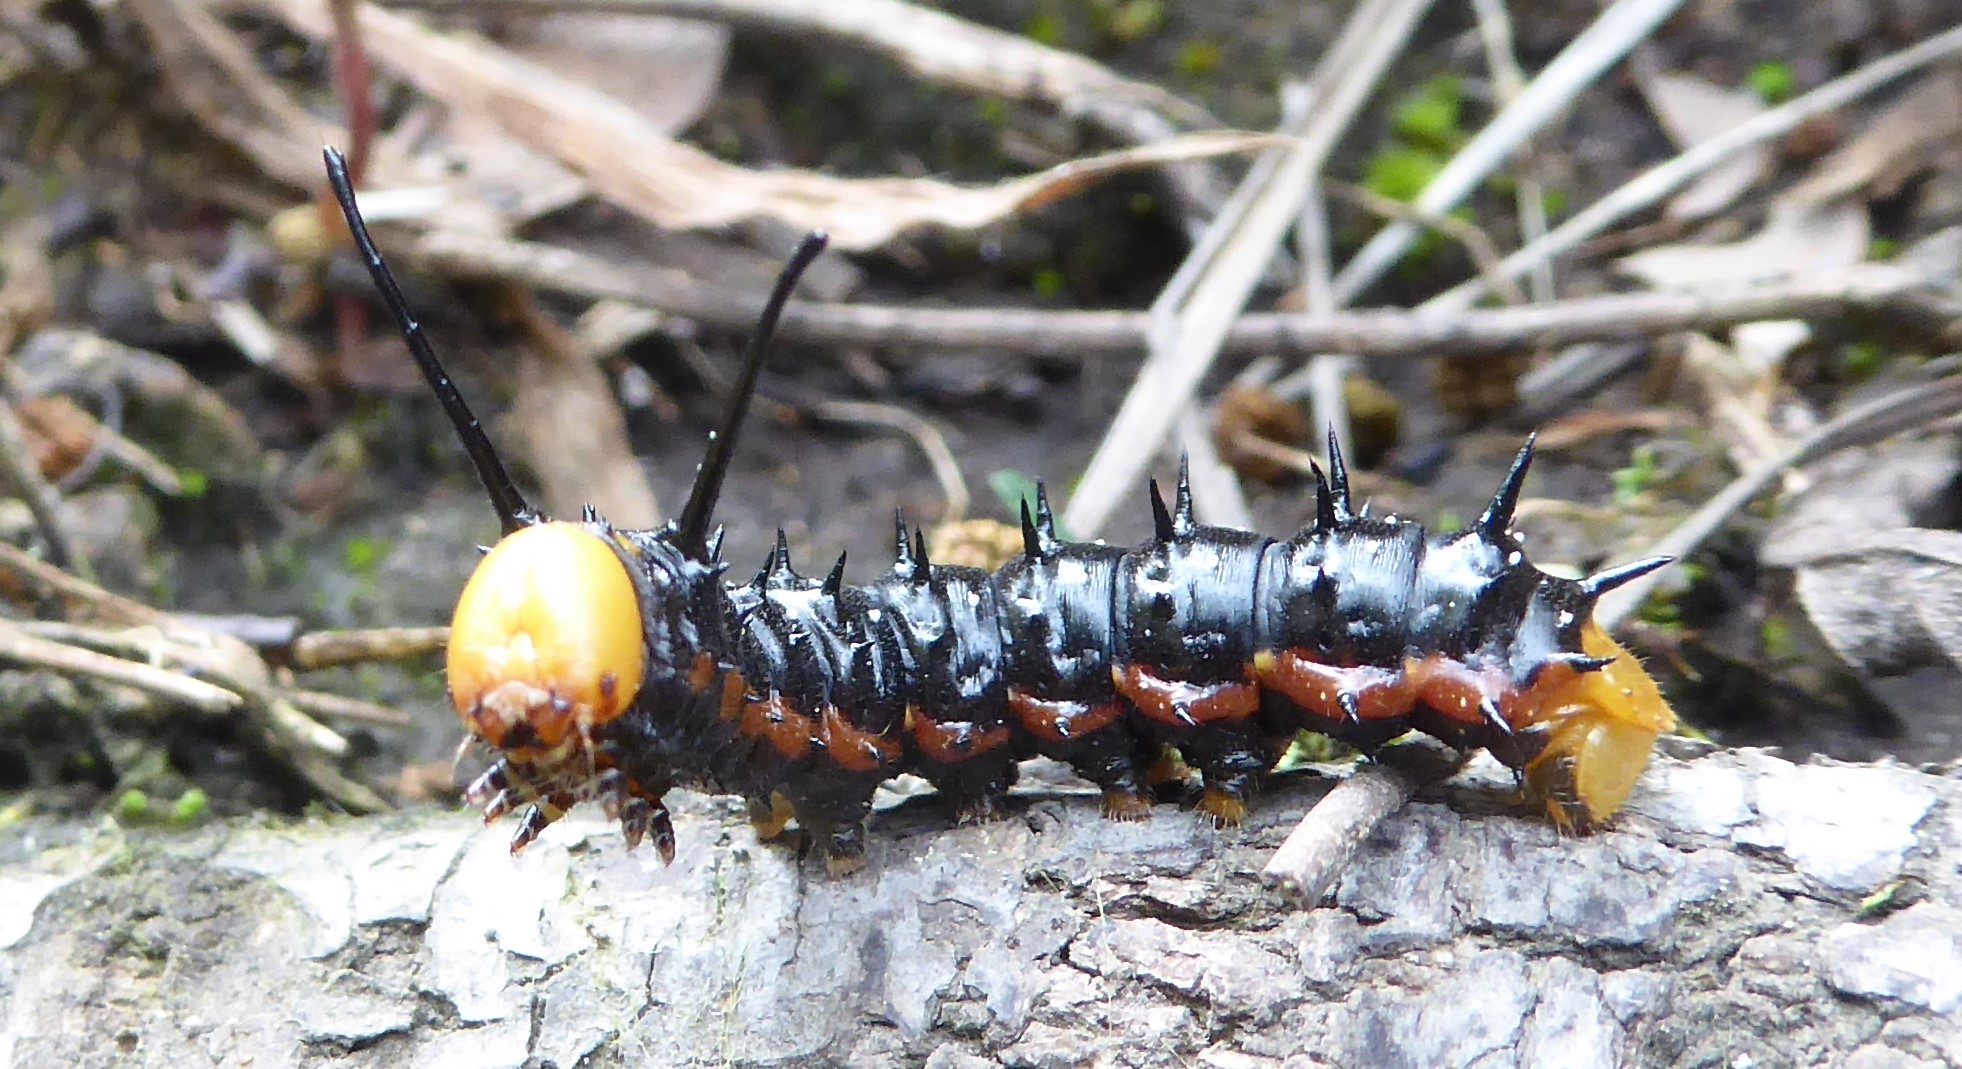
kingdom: Animalia
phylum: Arthropoda
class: Insecta
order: Lepidoptera
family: Saturniidae
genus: Anisota
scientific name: Anisota dissimilis
